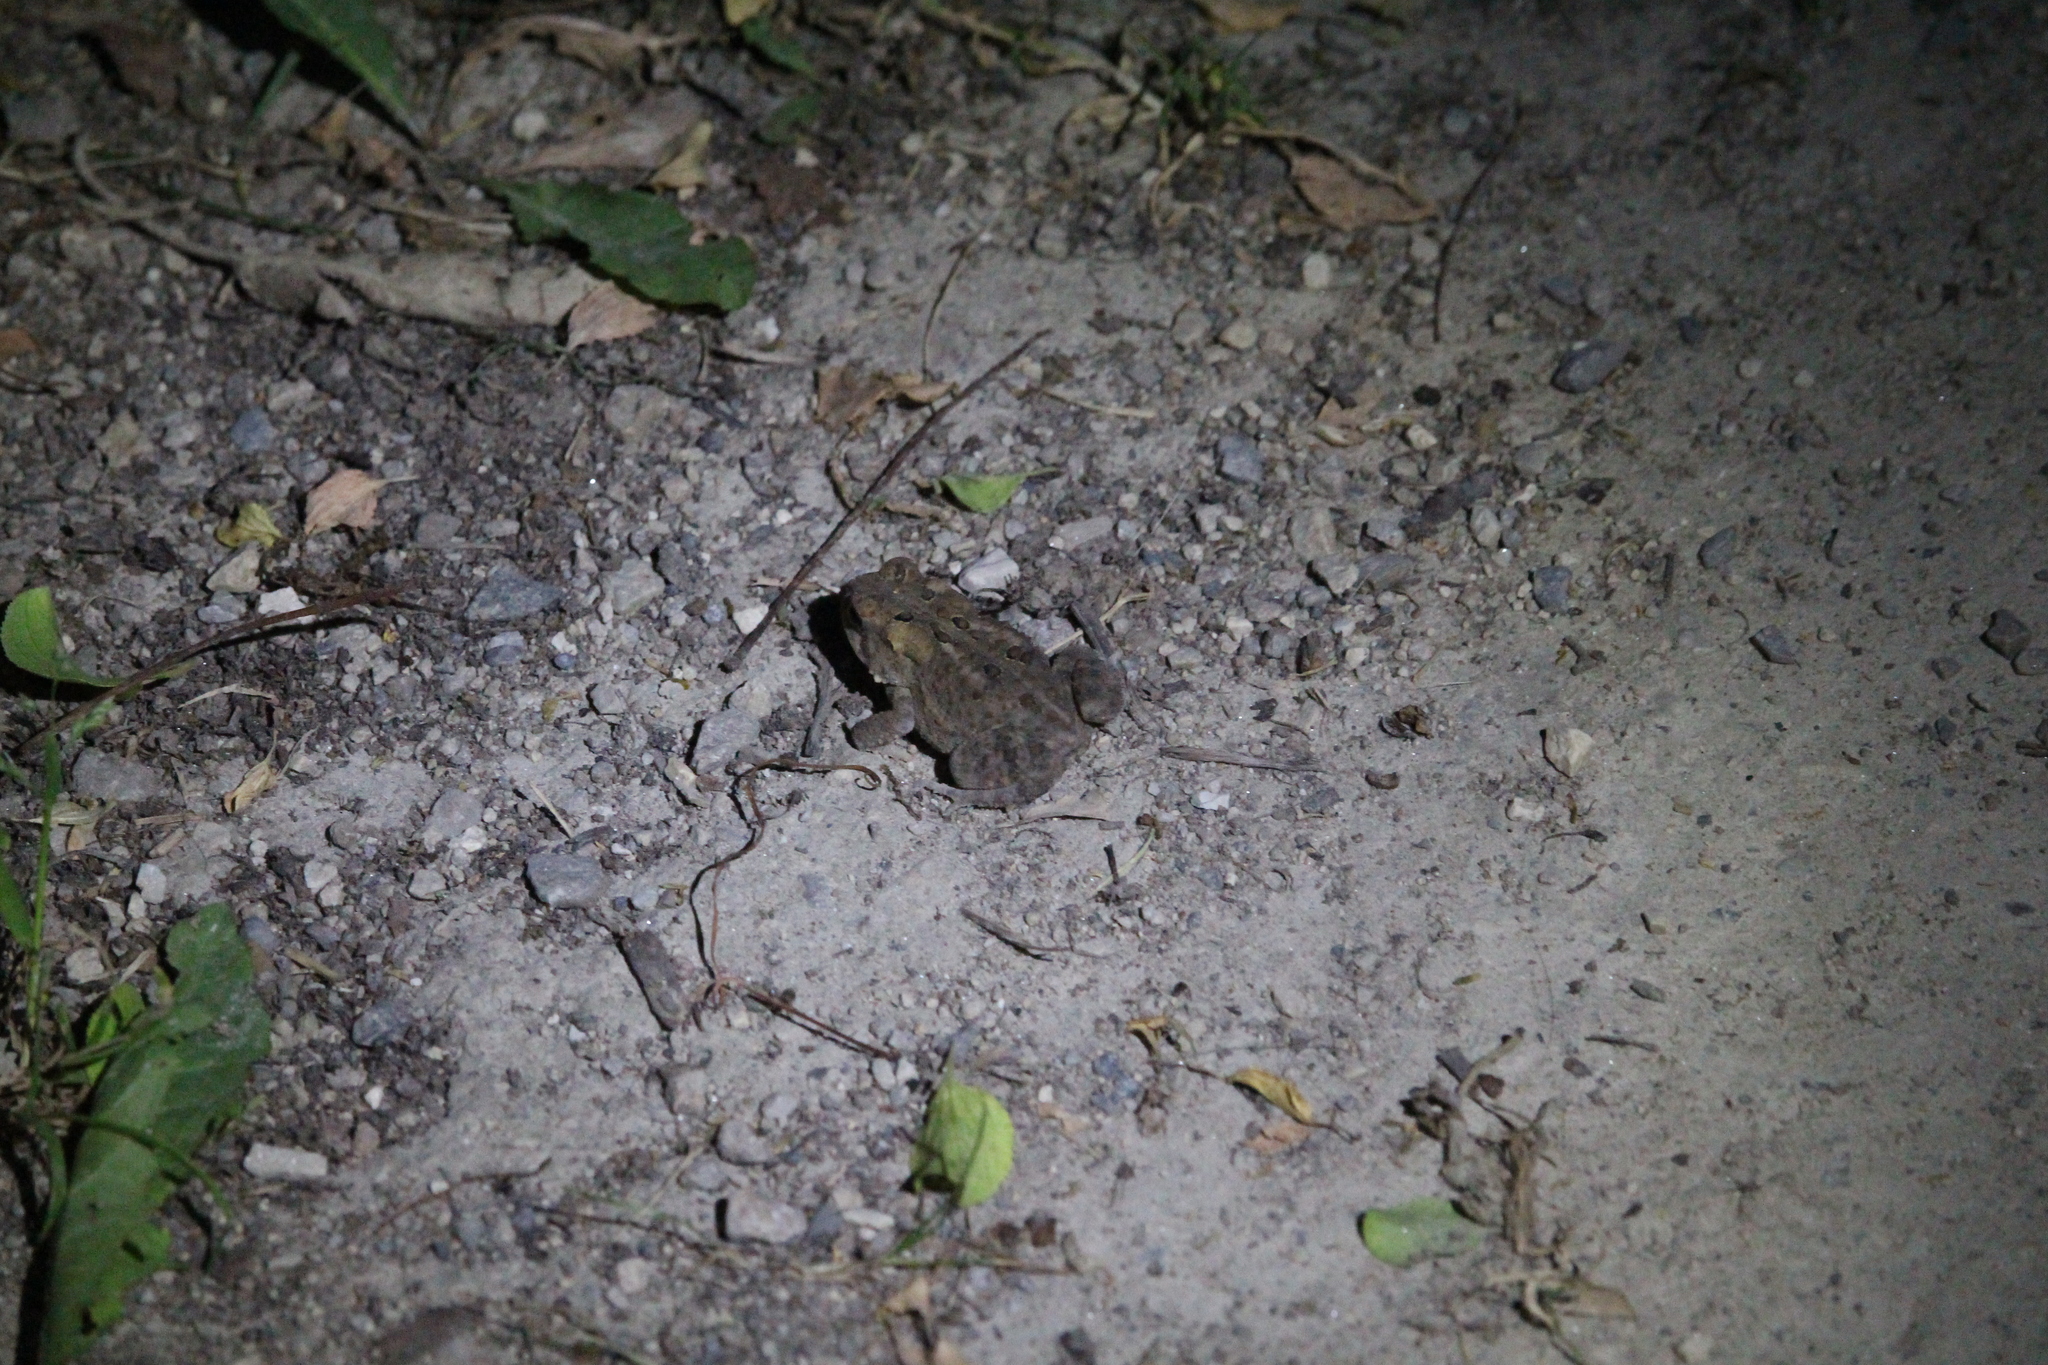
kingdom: Animalia
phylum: Chordata
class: Amphibia
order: Anura
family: Bufonidae
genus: Anaxyrus
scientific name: Anaxyrus americanus
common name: American toad
